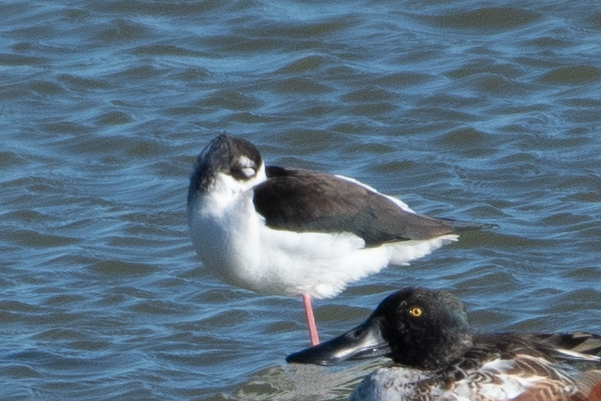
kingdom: Animalia
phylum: Chordata
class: Aves
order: Charadriiformes
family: Recurvirostridae
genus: Himantopus
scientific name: Himantopus mexicanus
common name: Black-necked stilt
